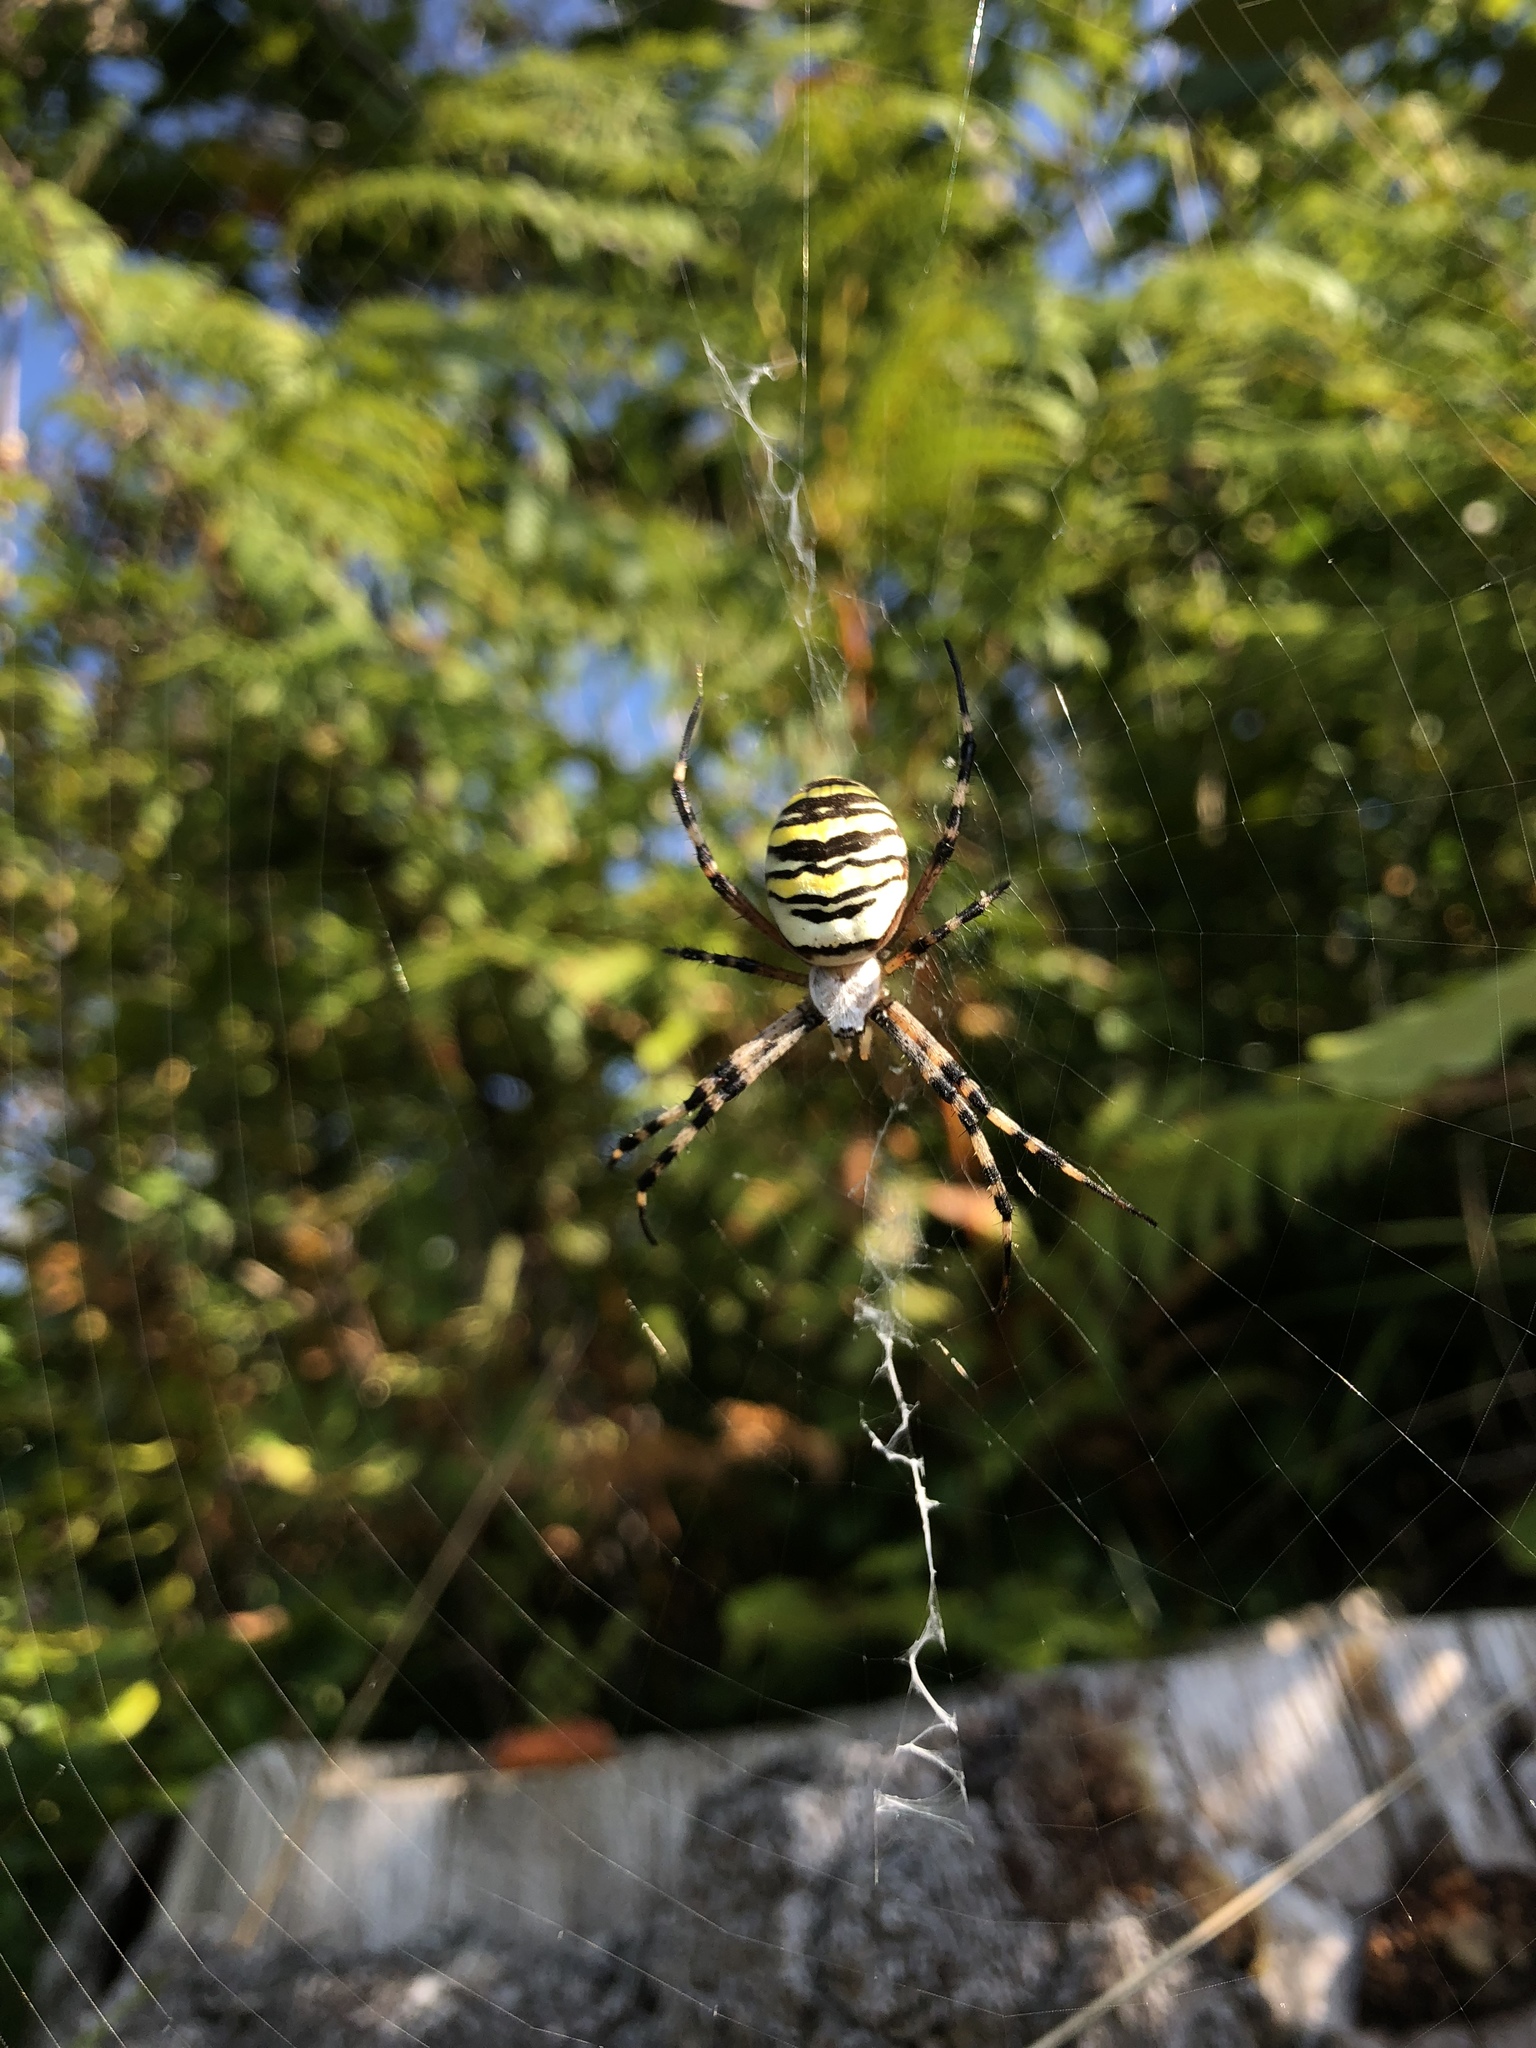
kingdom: Animalia
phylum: Arthropoda
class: Arachnida
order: Araneae
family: Araneidae
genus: Argiope
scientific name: Argiope bruennichi
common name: Wasp spider
